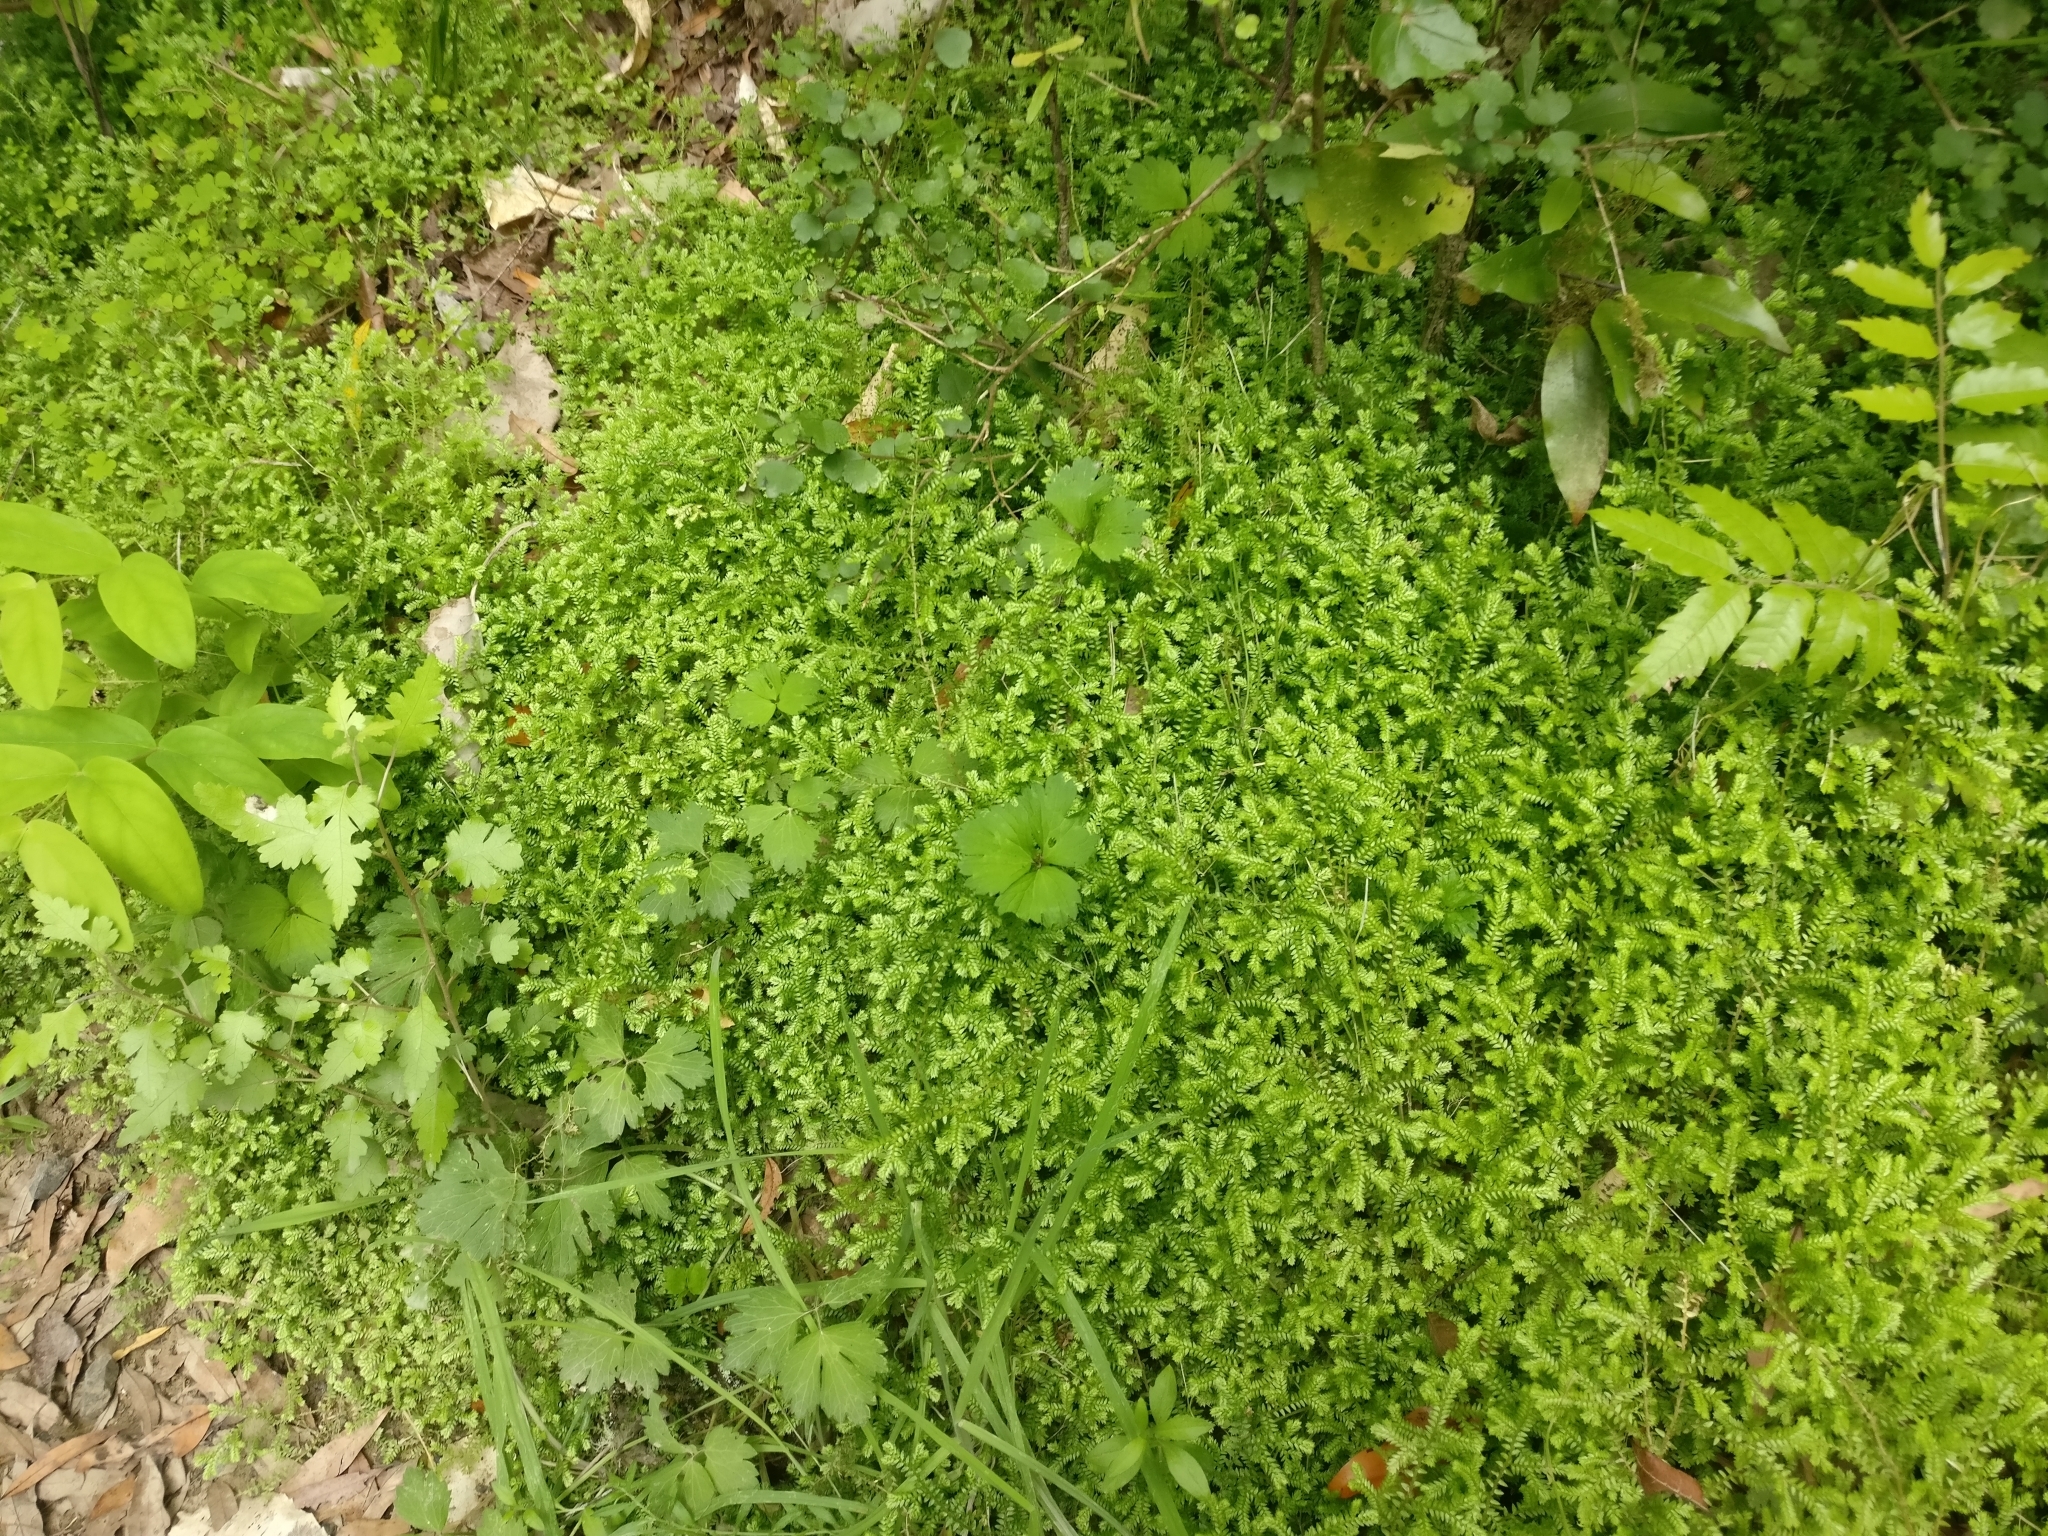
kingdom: Plantae
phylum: Tracheophyta
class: Lycopodiopsida
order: Selaginellales
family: Selaginellaceae
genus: Selaginella
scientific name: Selaginella kraussiana
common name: Krauss' spikemoss
